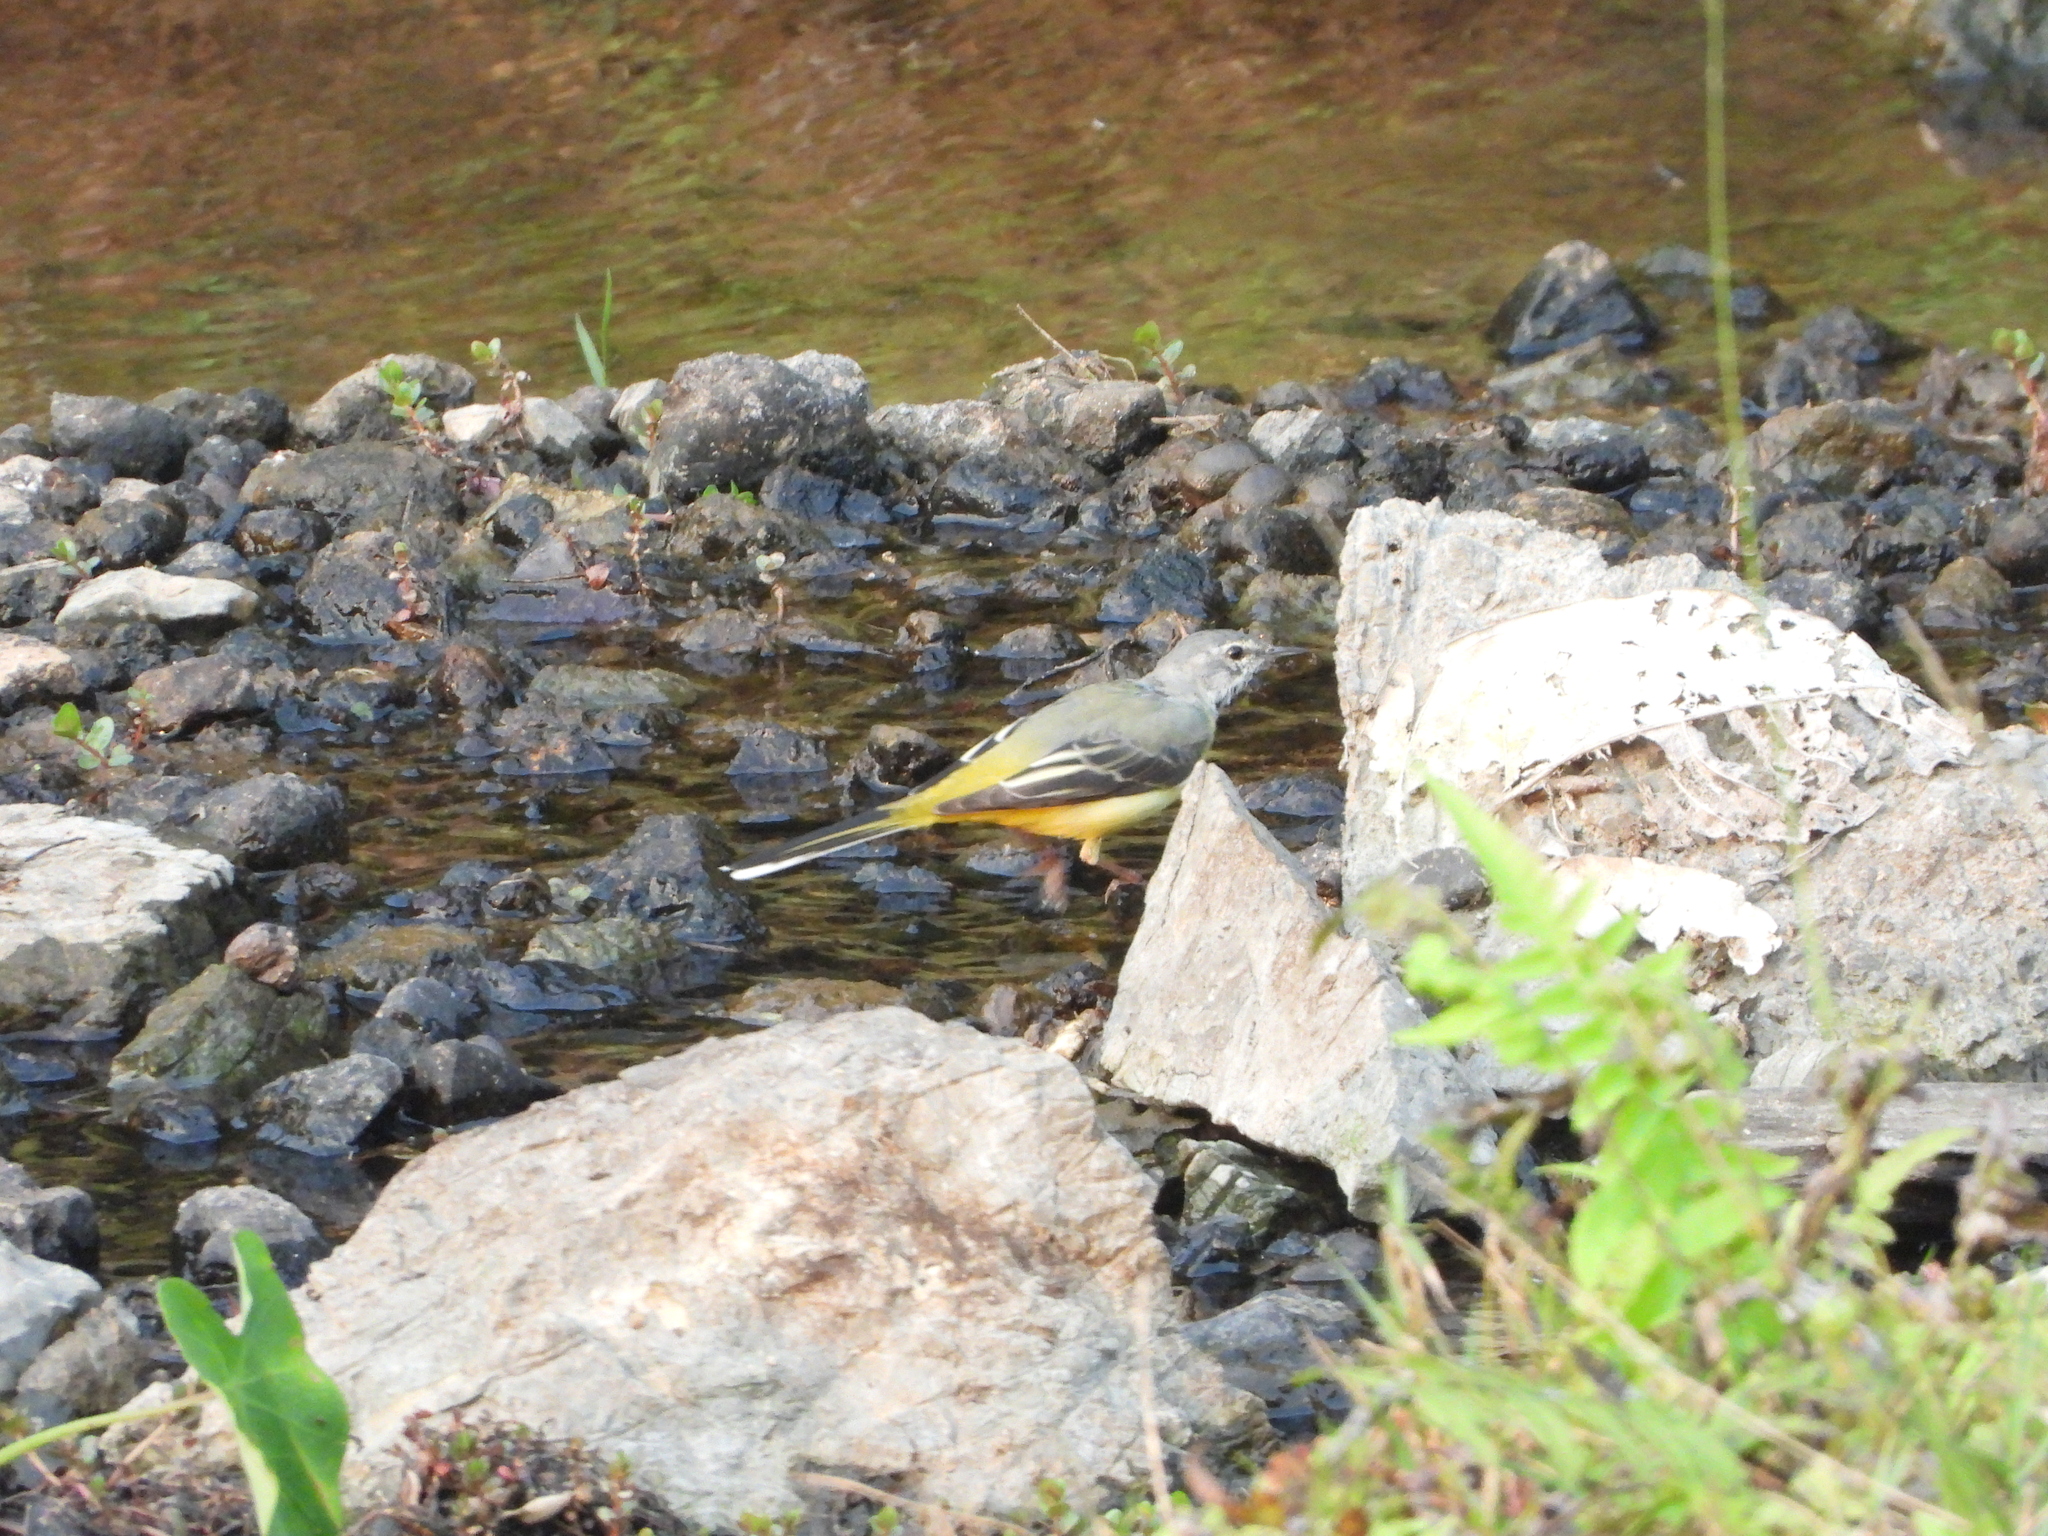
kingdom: Animalia
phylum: Chordata
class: Aves
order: Passeriformes
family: Motacillidae
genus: Motacilla
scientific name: Motacilla cinerea
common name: Grey wagtail
